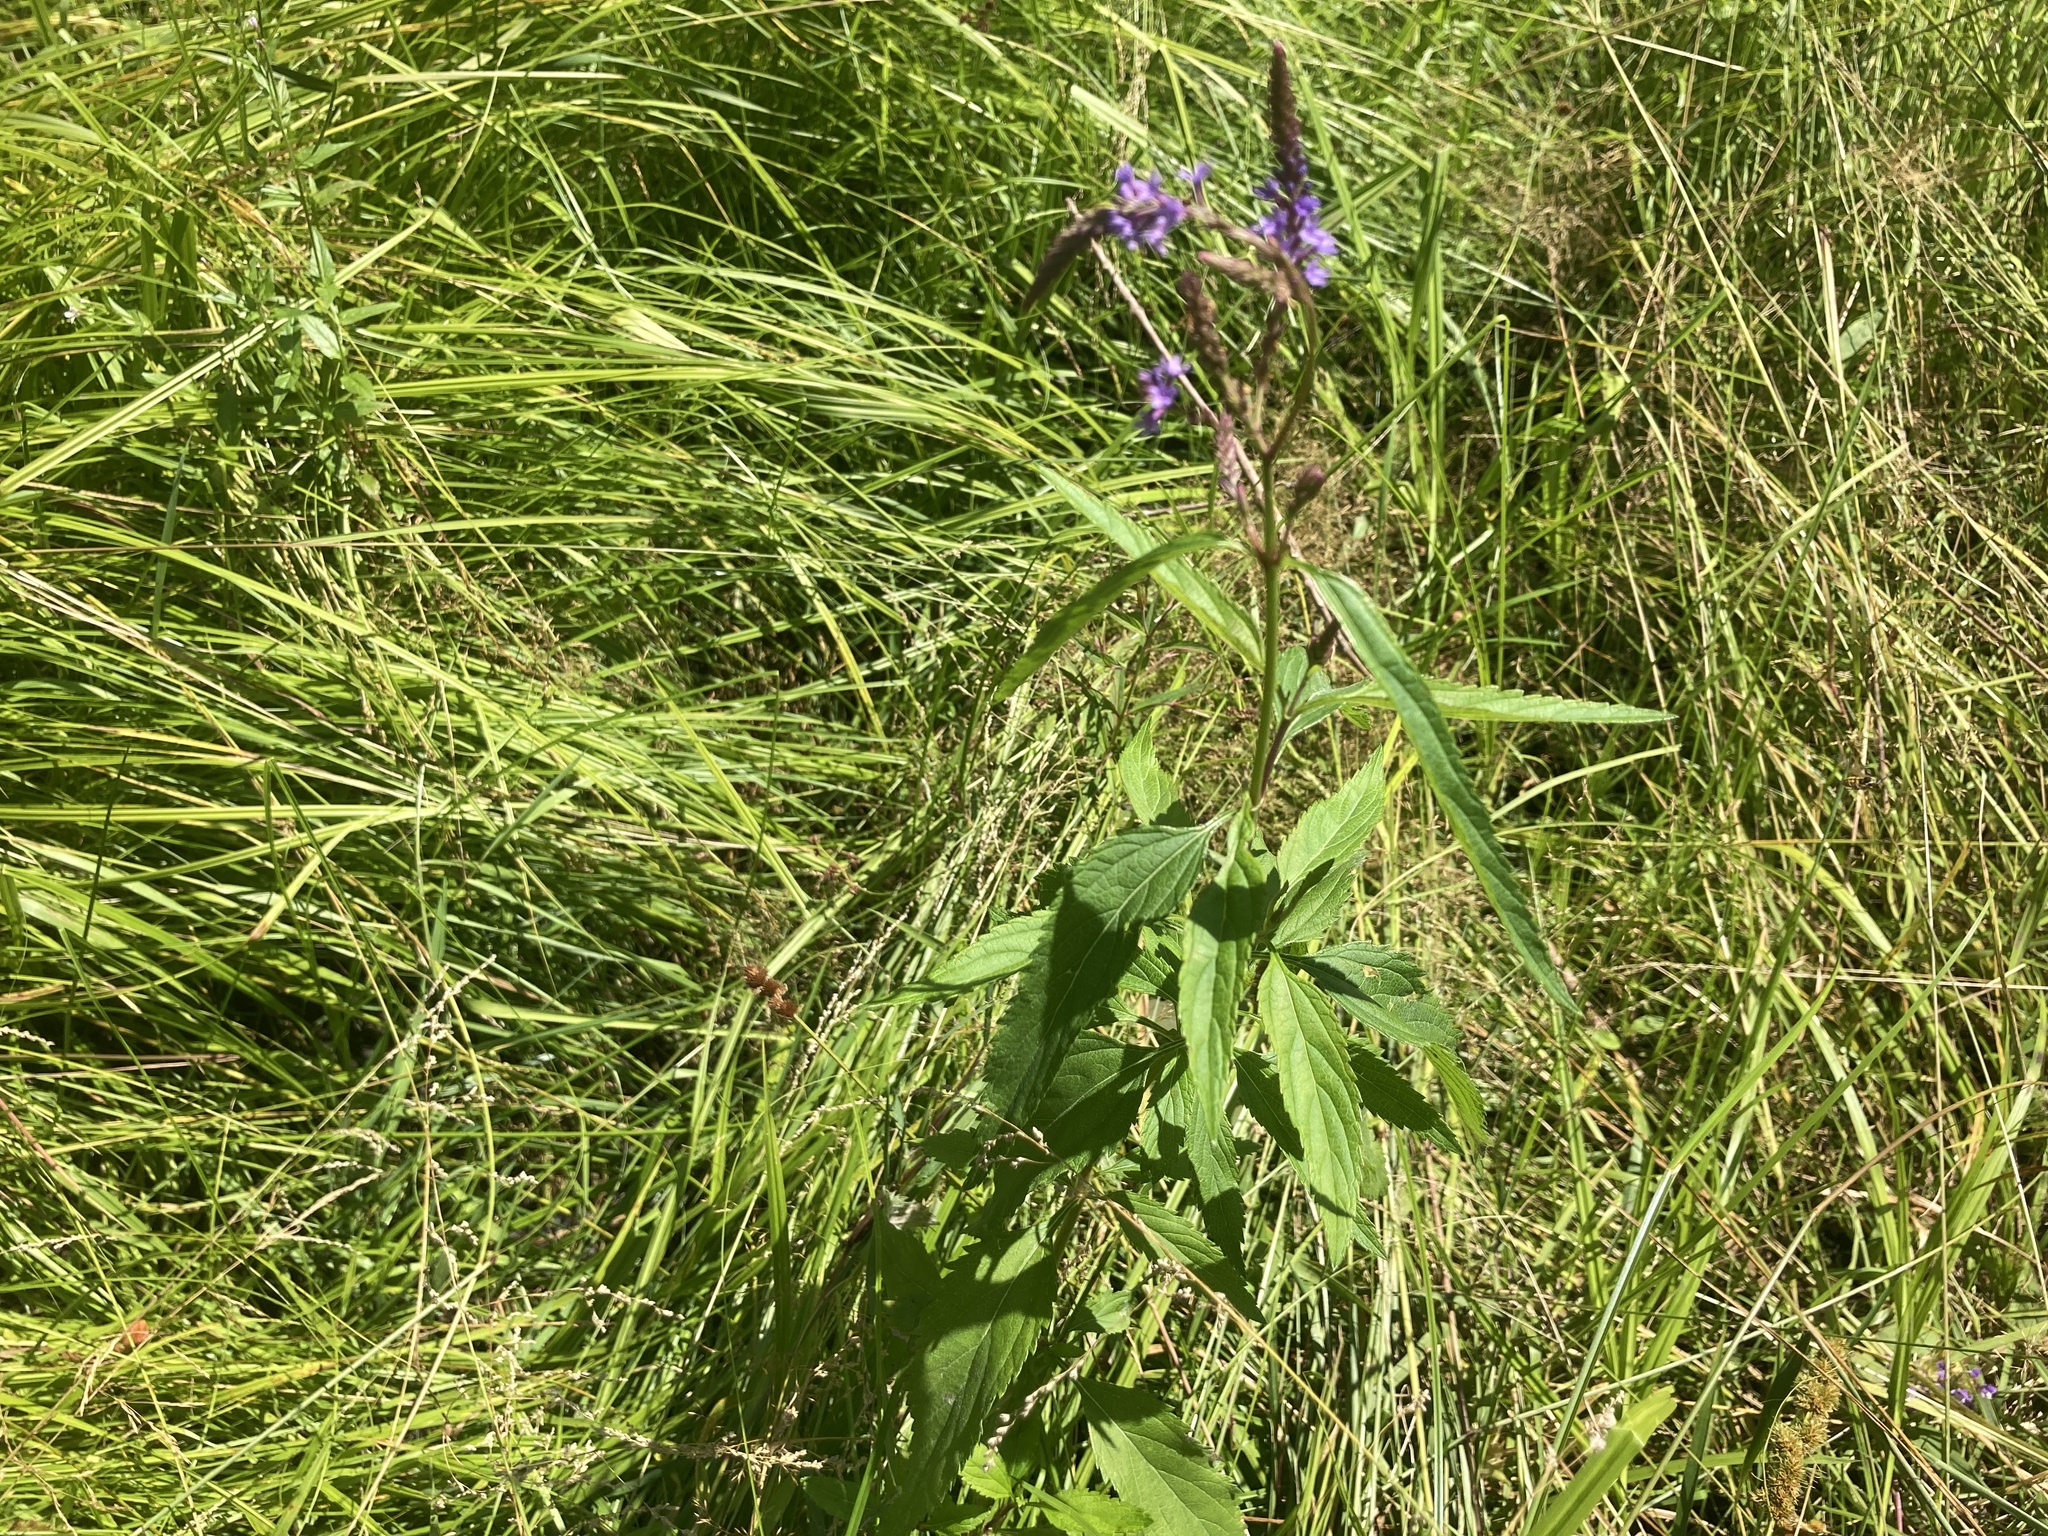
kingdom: Plantae
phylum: Tracheophyta
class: Magnoliopsida
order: Lamiales
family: Verbenaceae
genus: Verbena
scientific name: Verbena hastata
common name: American blue vervain
